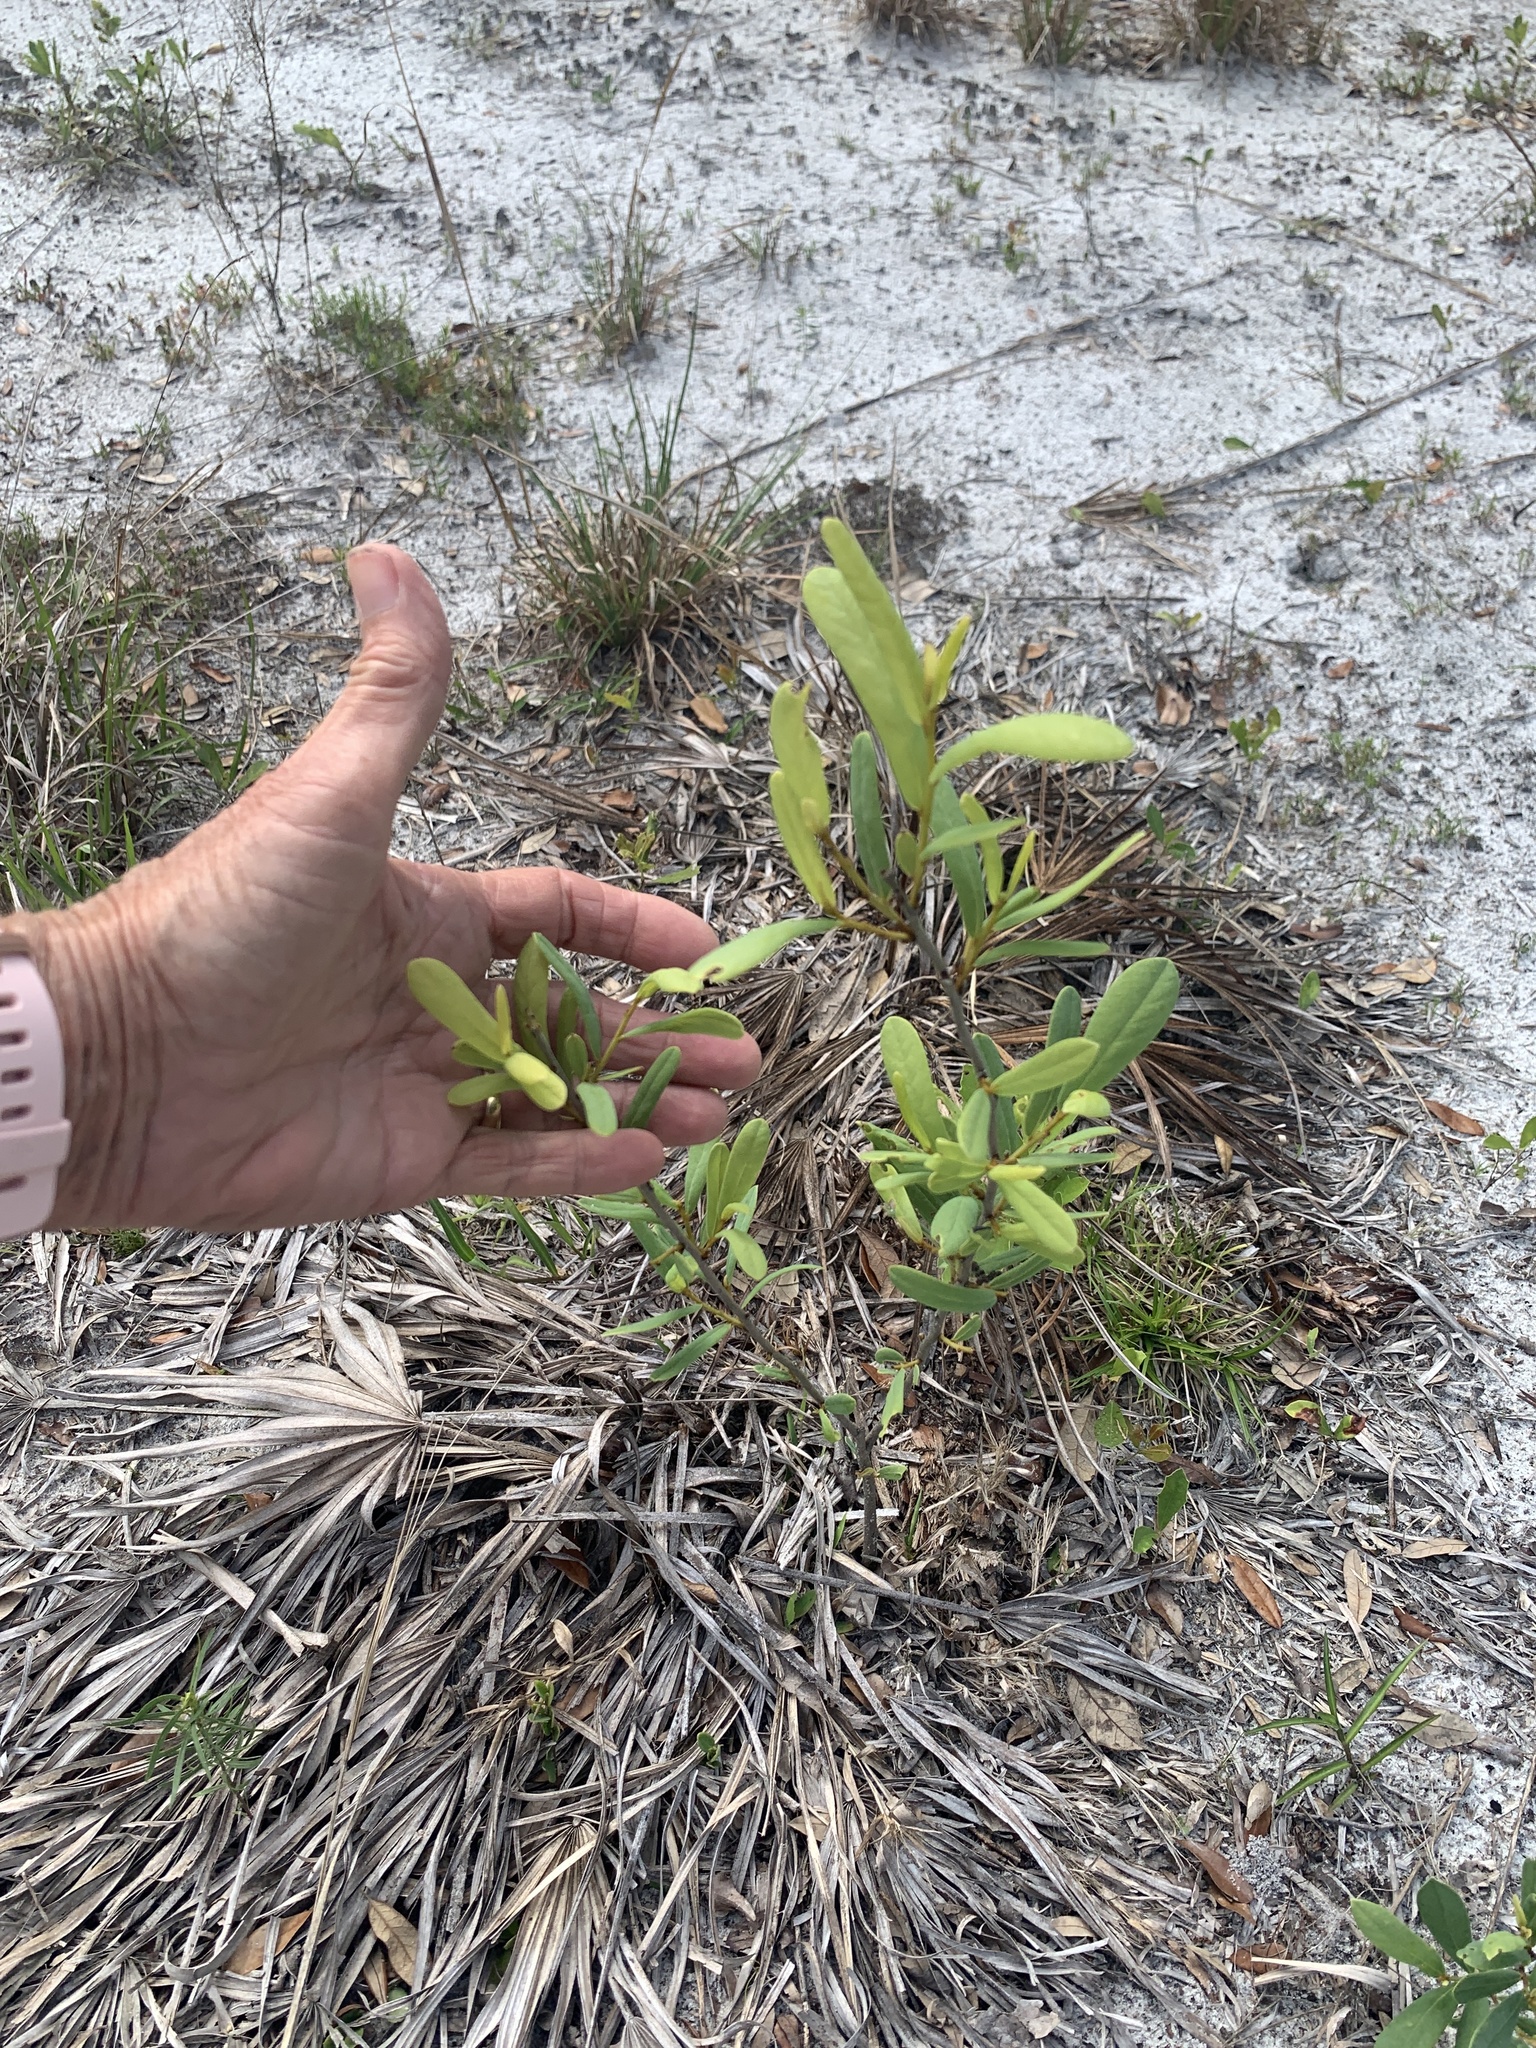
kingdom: Plantae
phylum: Tracheophyta
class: Magnoliopsida
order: Magnoliales
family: Annonaceae
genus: Asimina
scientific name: Asimina reticulata
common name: Flag pawpaw
